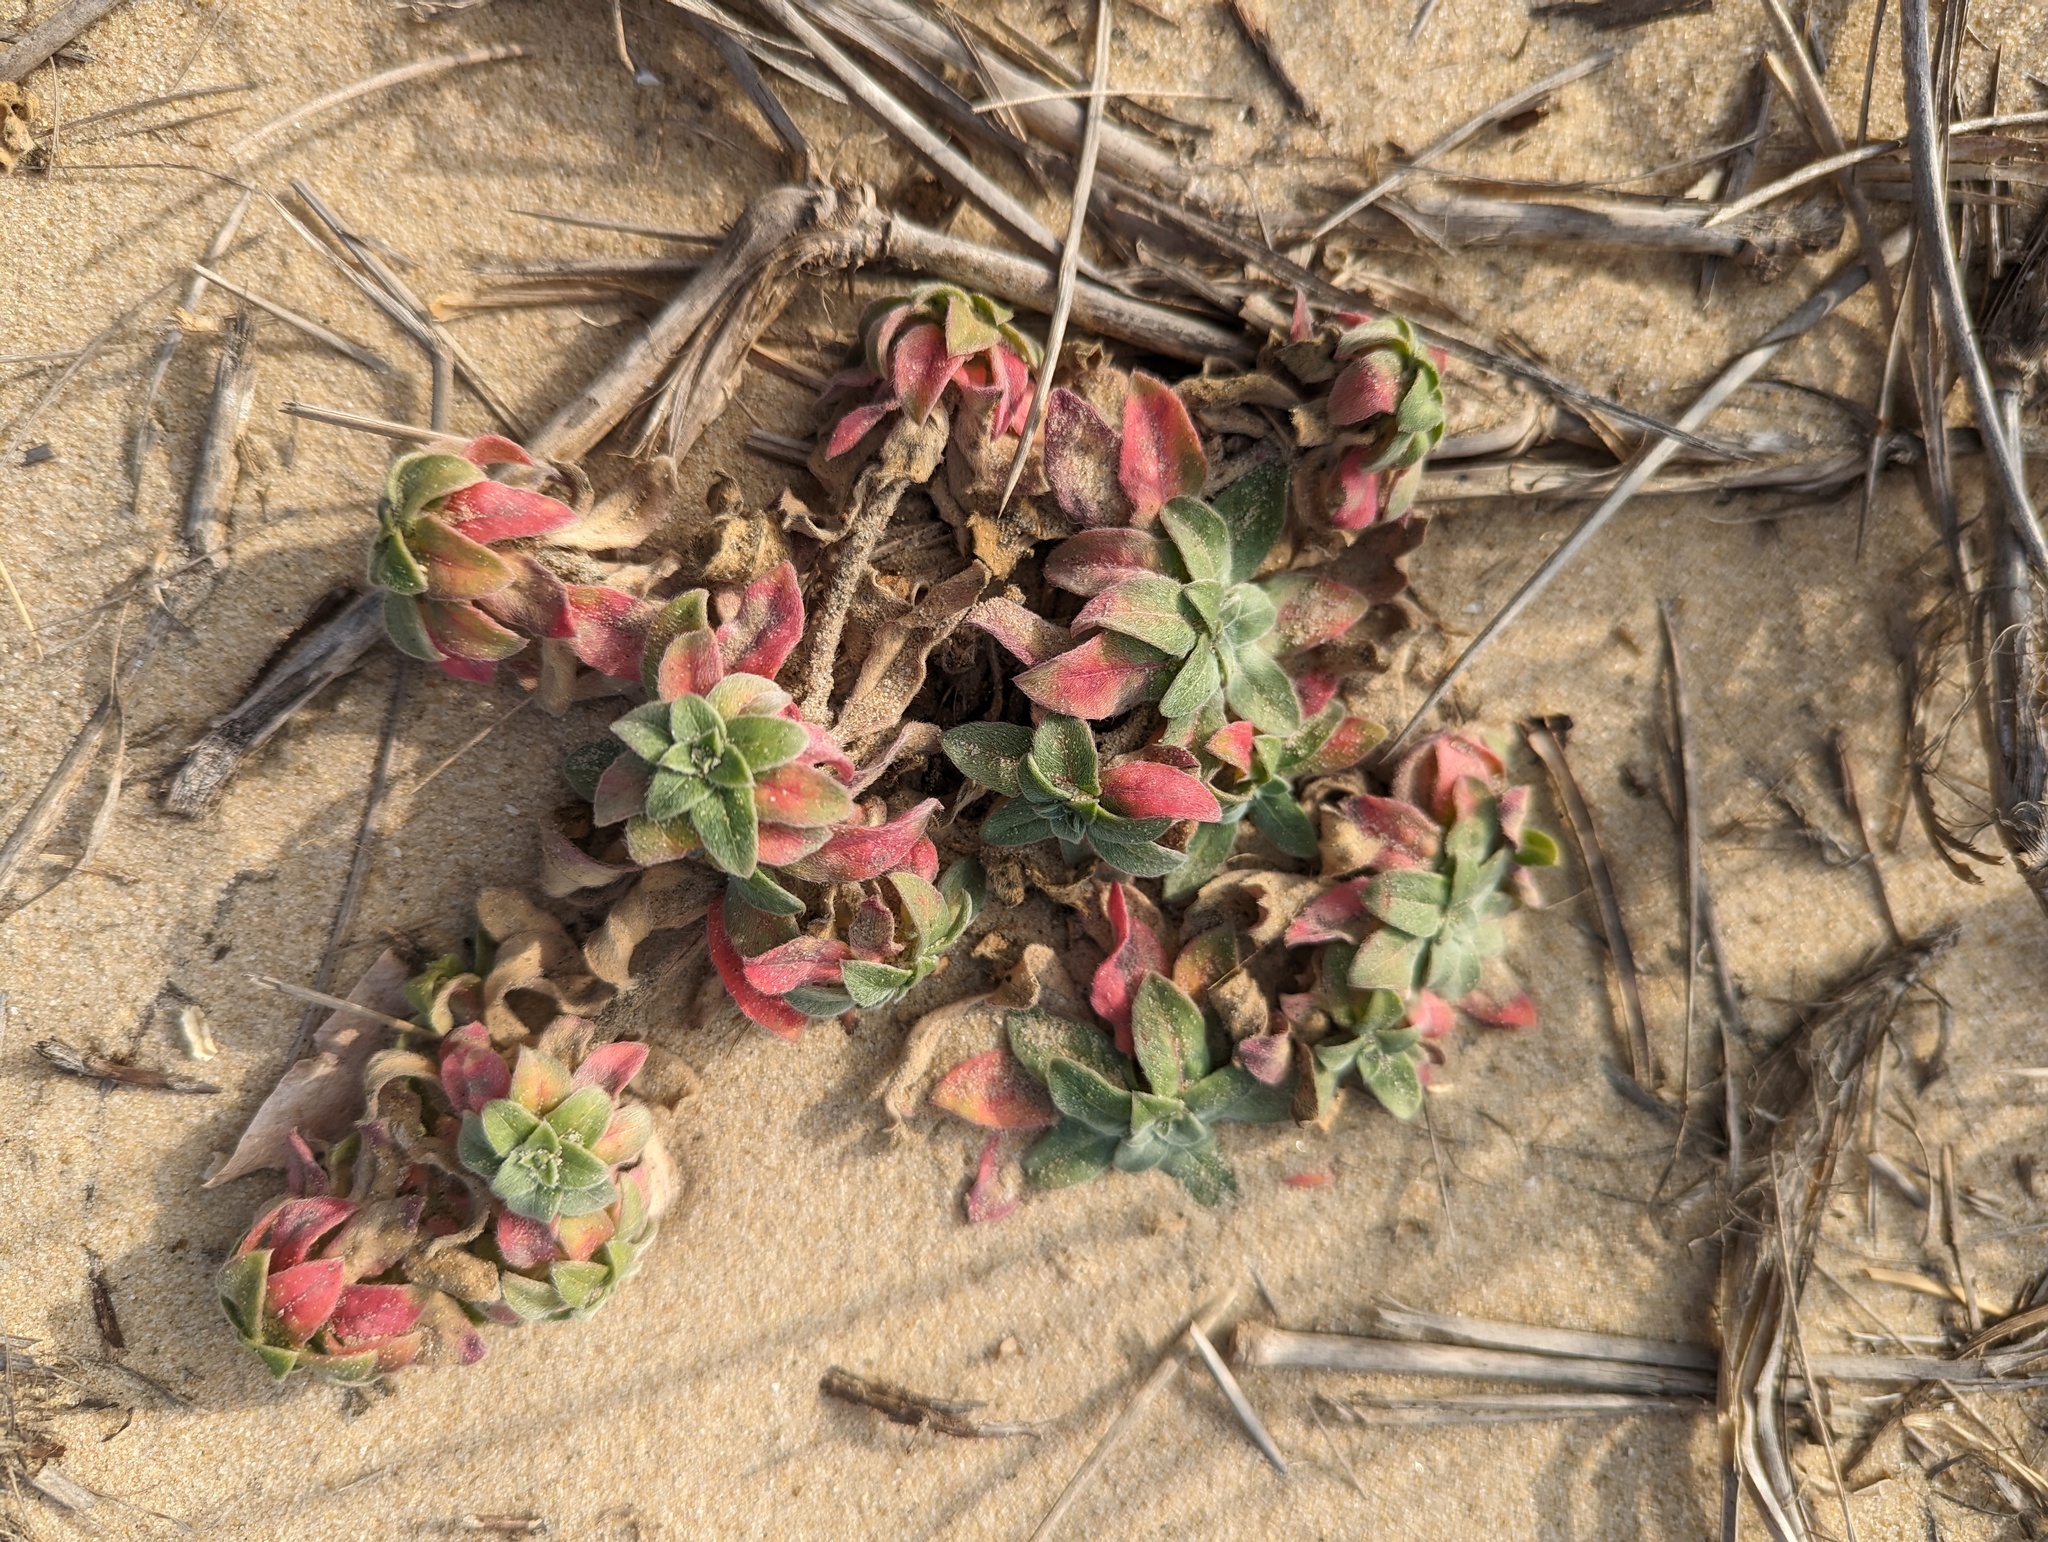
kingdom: Plantae
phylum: Tracheophyta
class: Magnoliopsida
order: Myrtales
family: Onagraceae
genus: Oenothera
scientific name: Oenothera drummondii
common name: Beach evening-primrose
